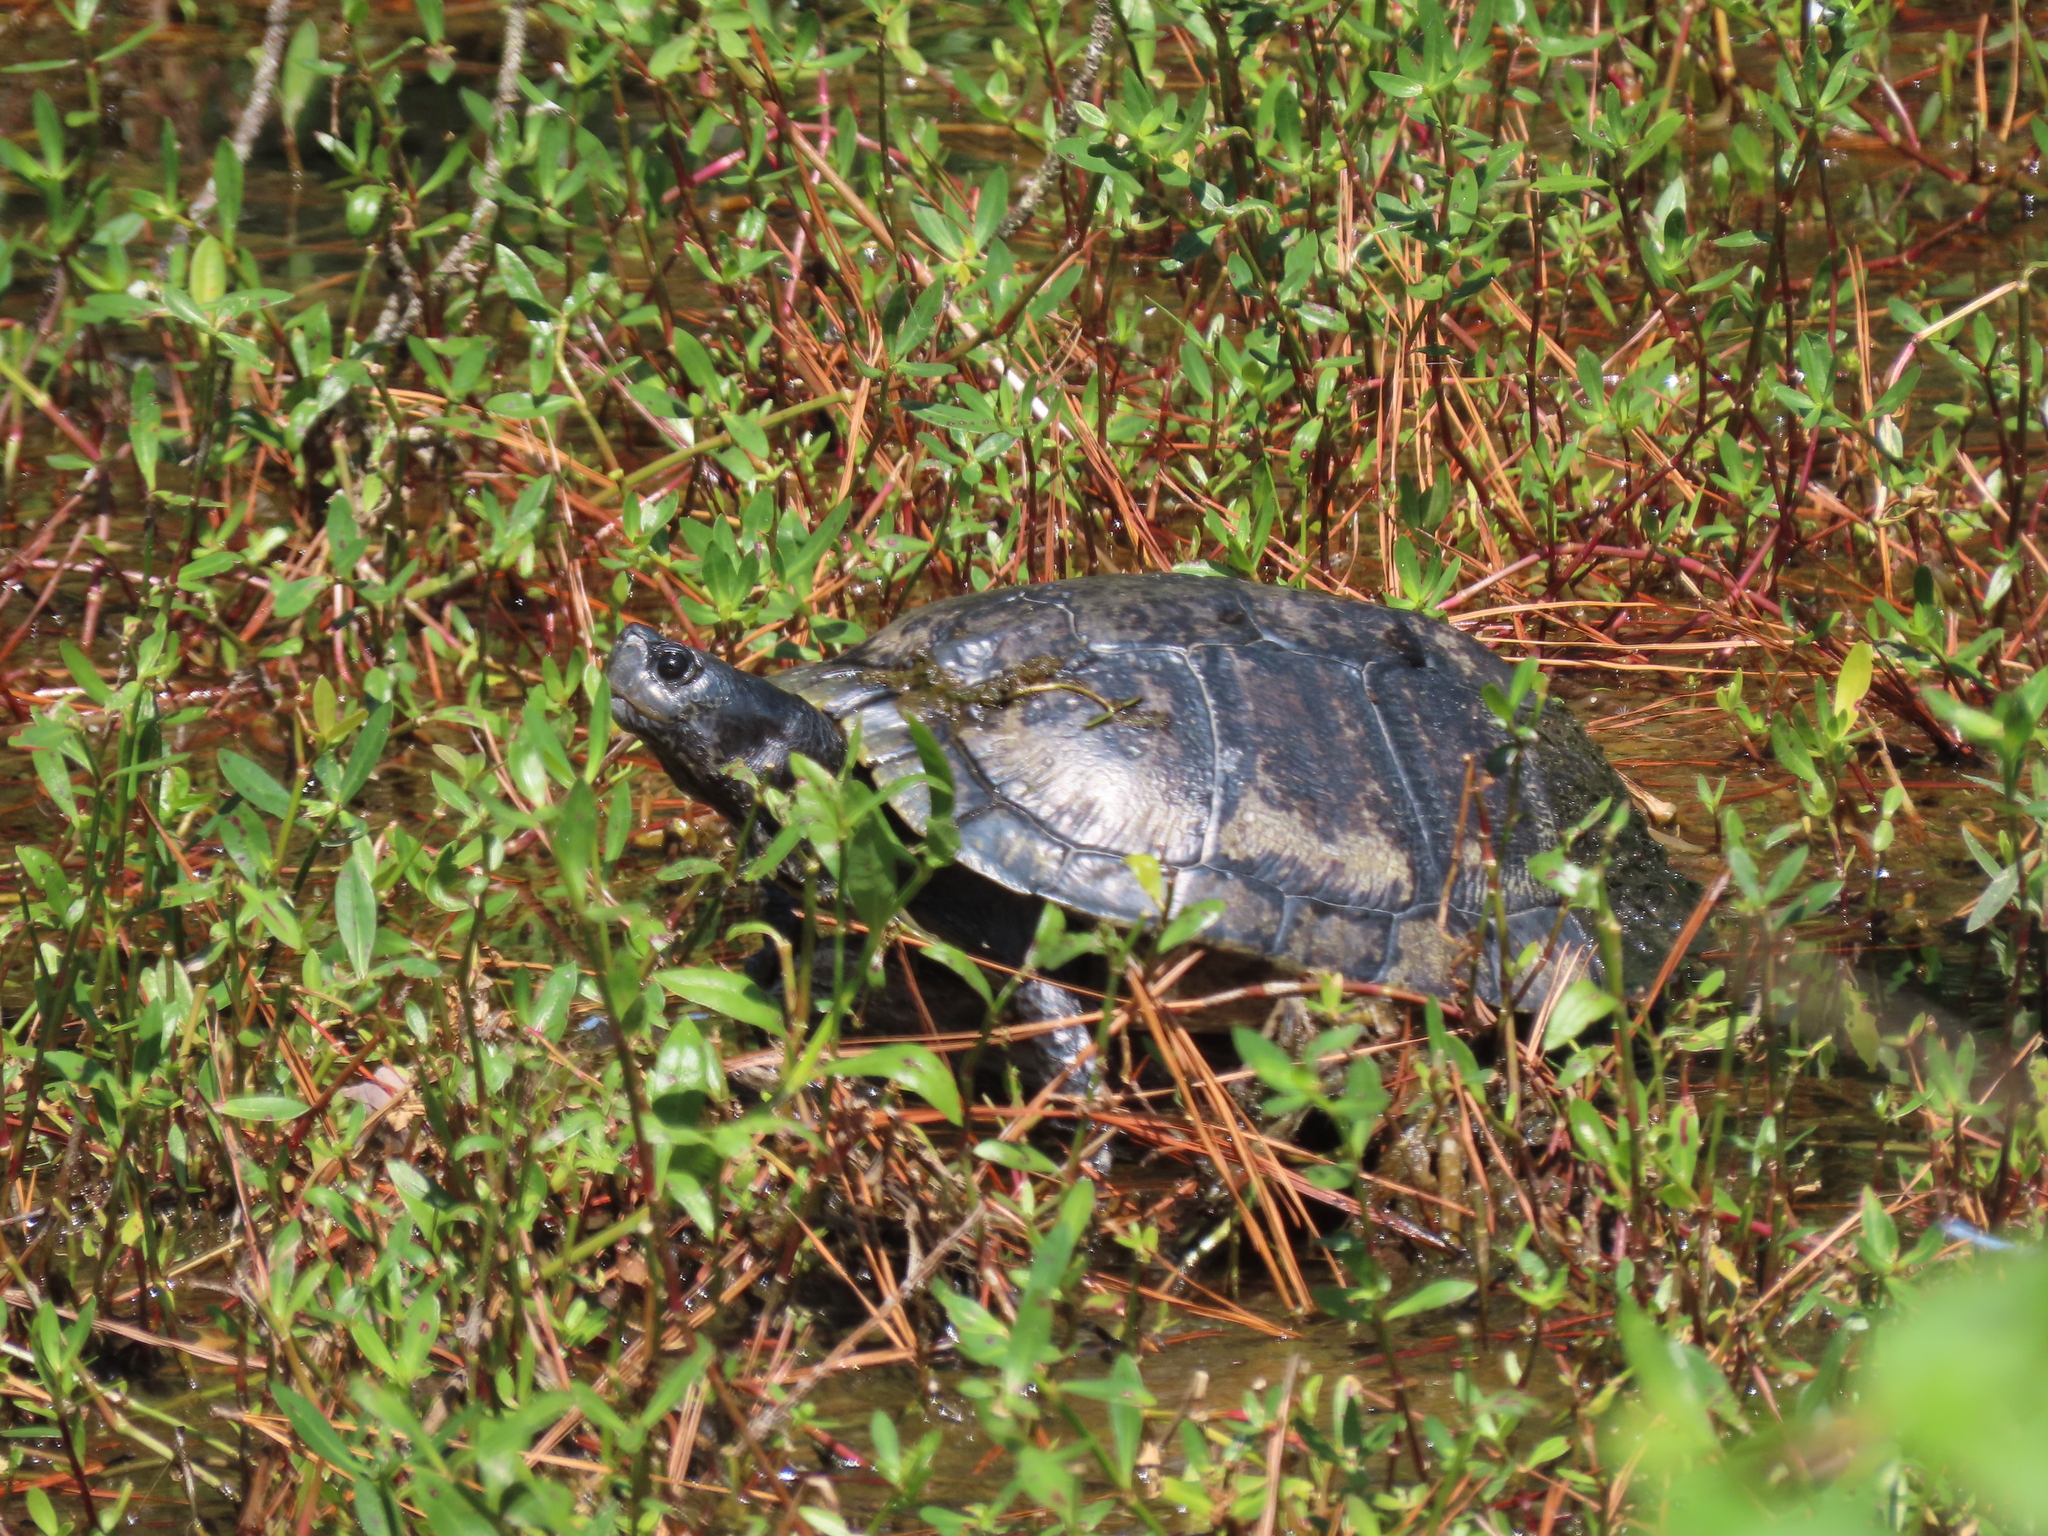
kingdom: Animalia
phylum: Chordata
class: Testudines
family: Emydidae
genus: Trachemys
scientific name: Trachemys scripta
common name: Slider
